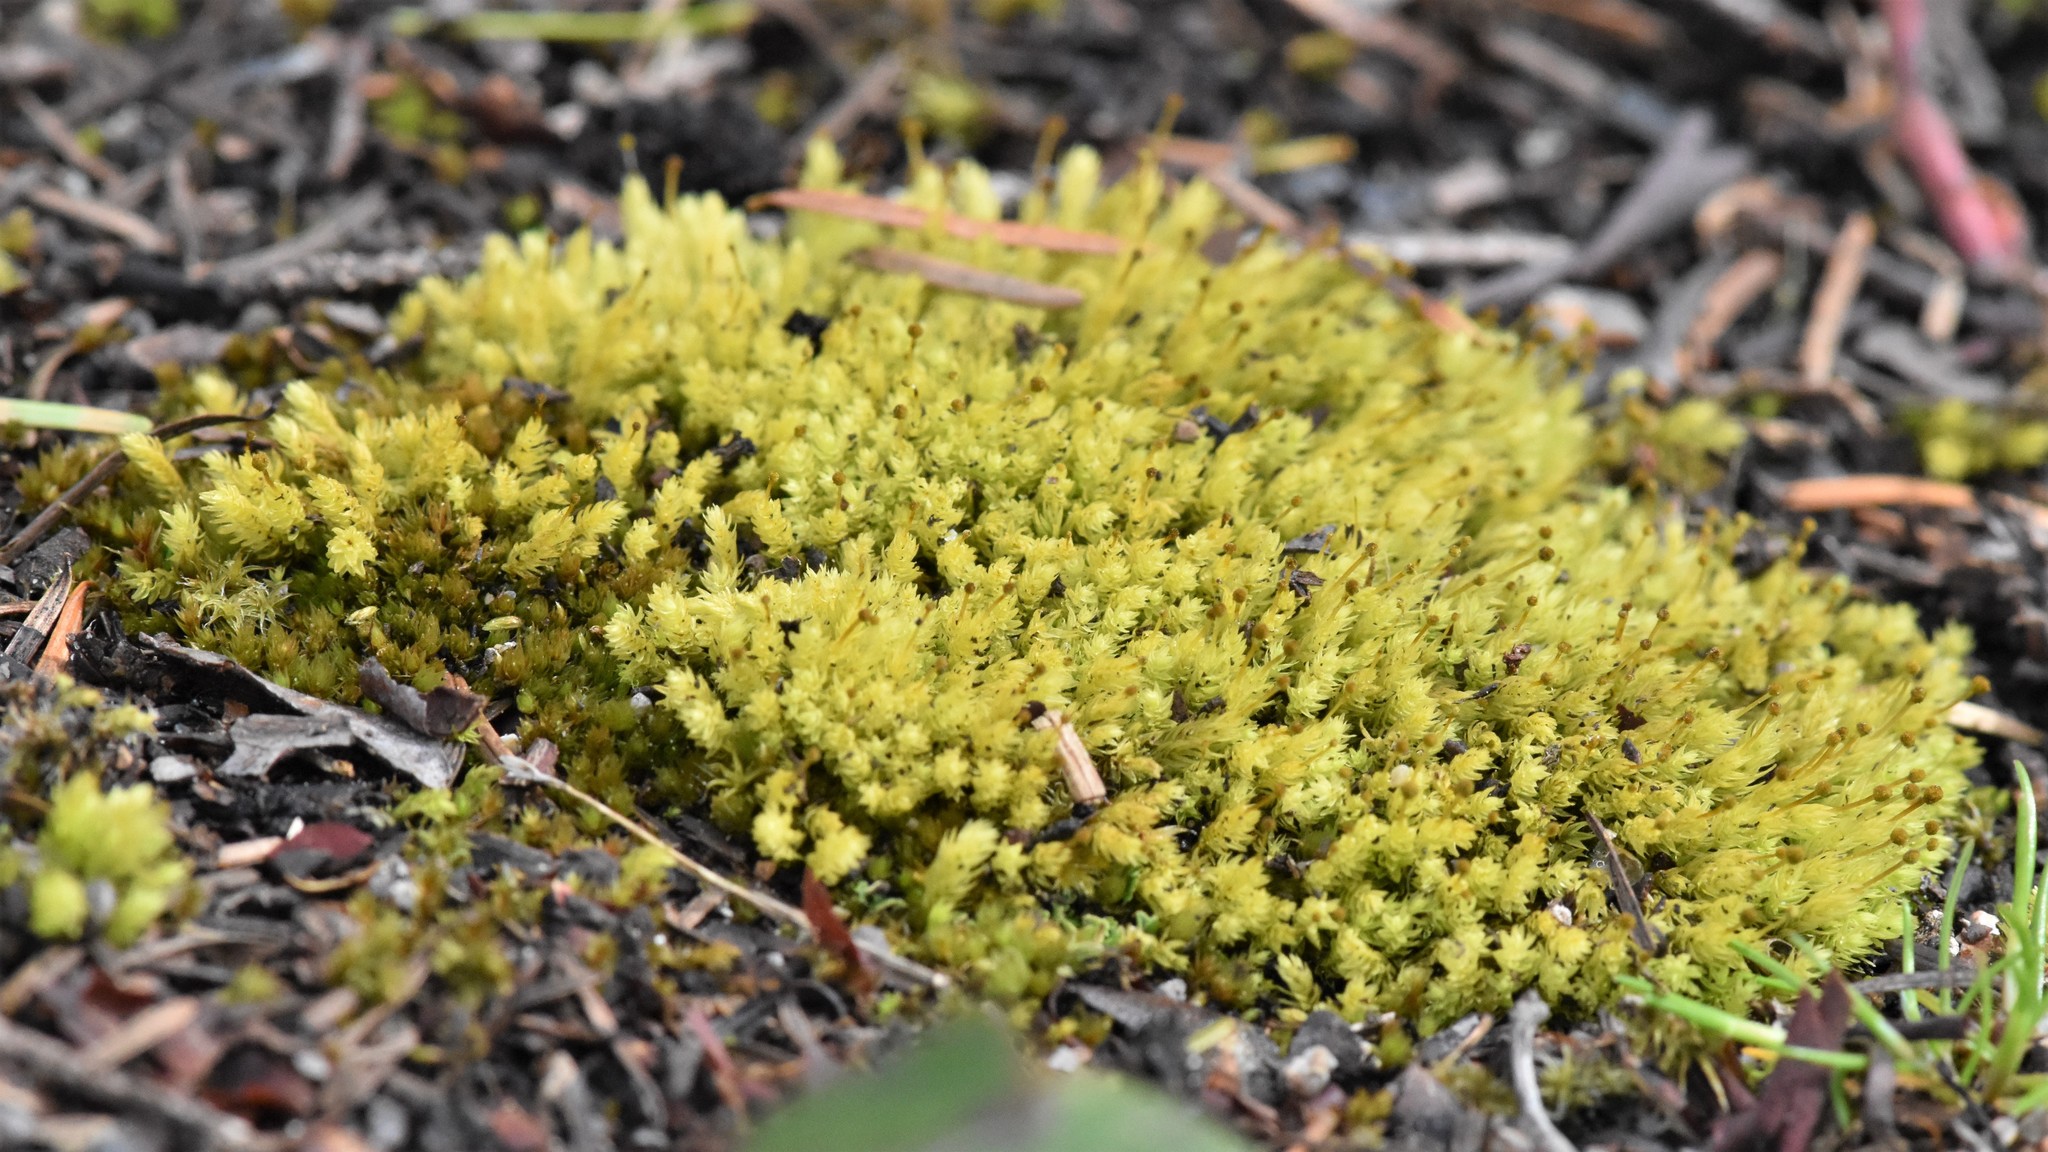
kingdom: Plantae
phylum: Bryophyta
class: Bryopsida
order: Aulacomniales
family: Aulacomniaceae
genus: Aulacomnium
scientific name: Aulacomnium androgynum
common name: Little groove moss
